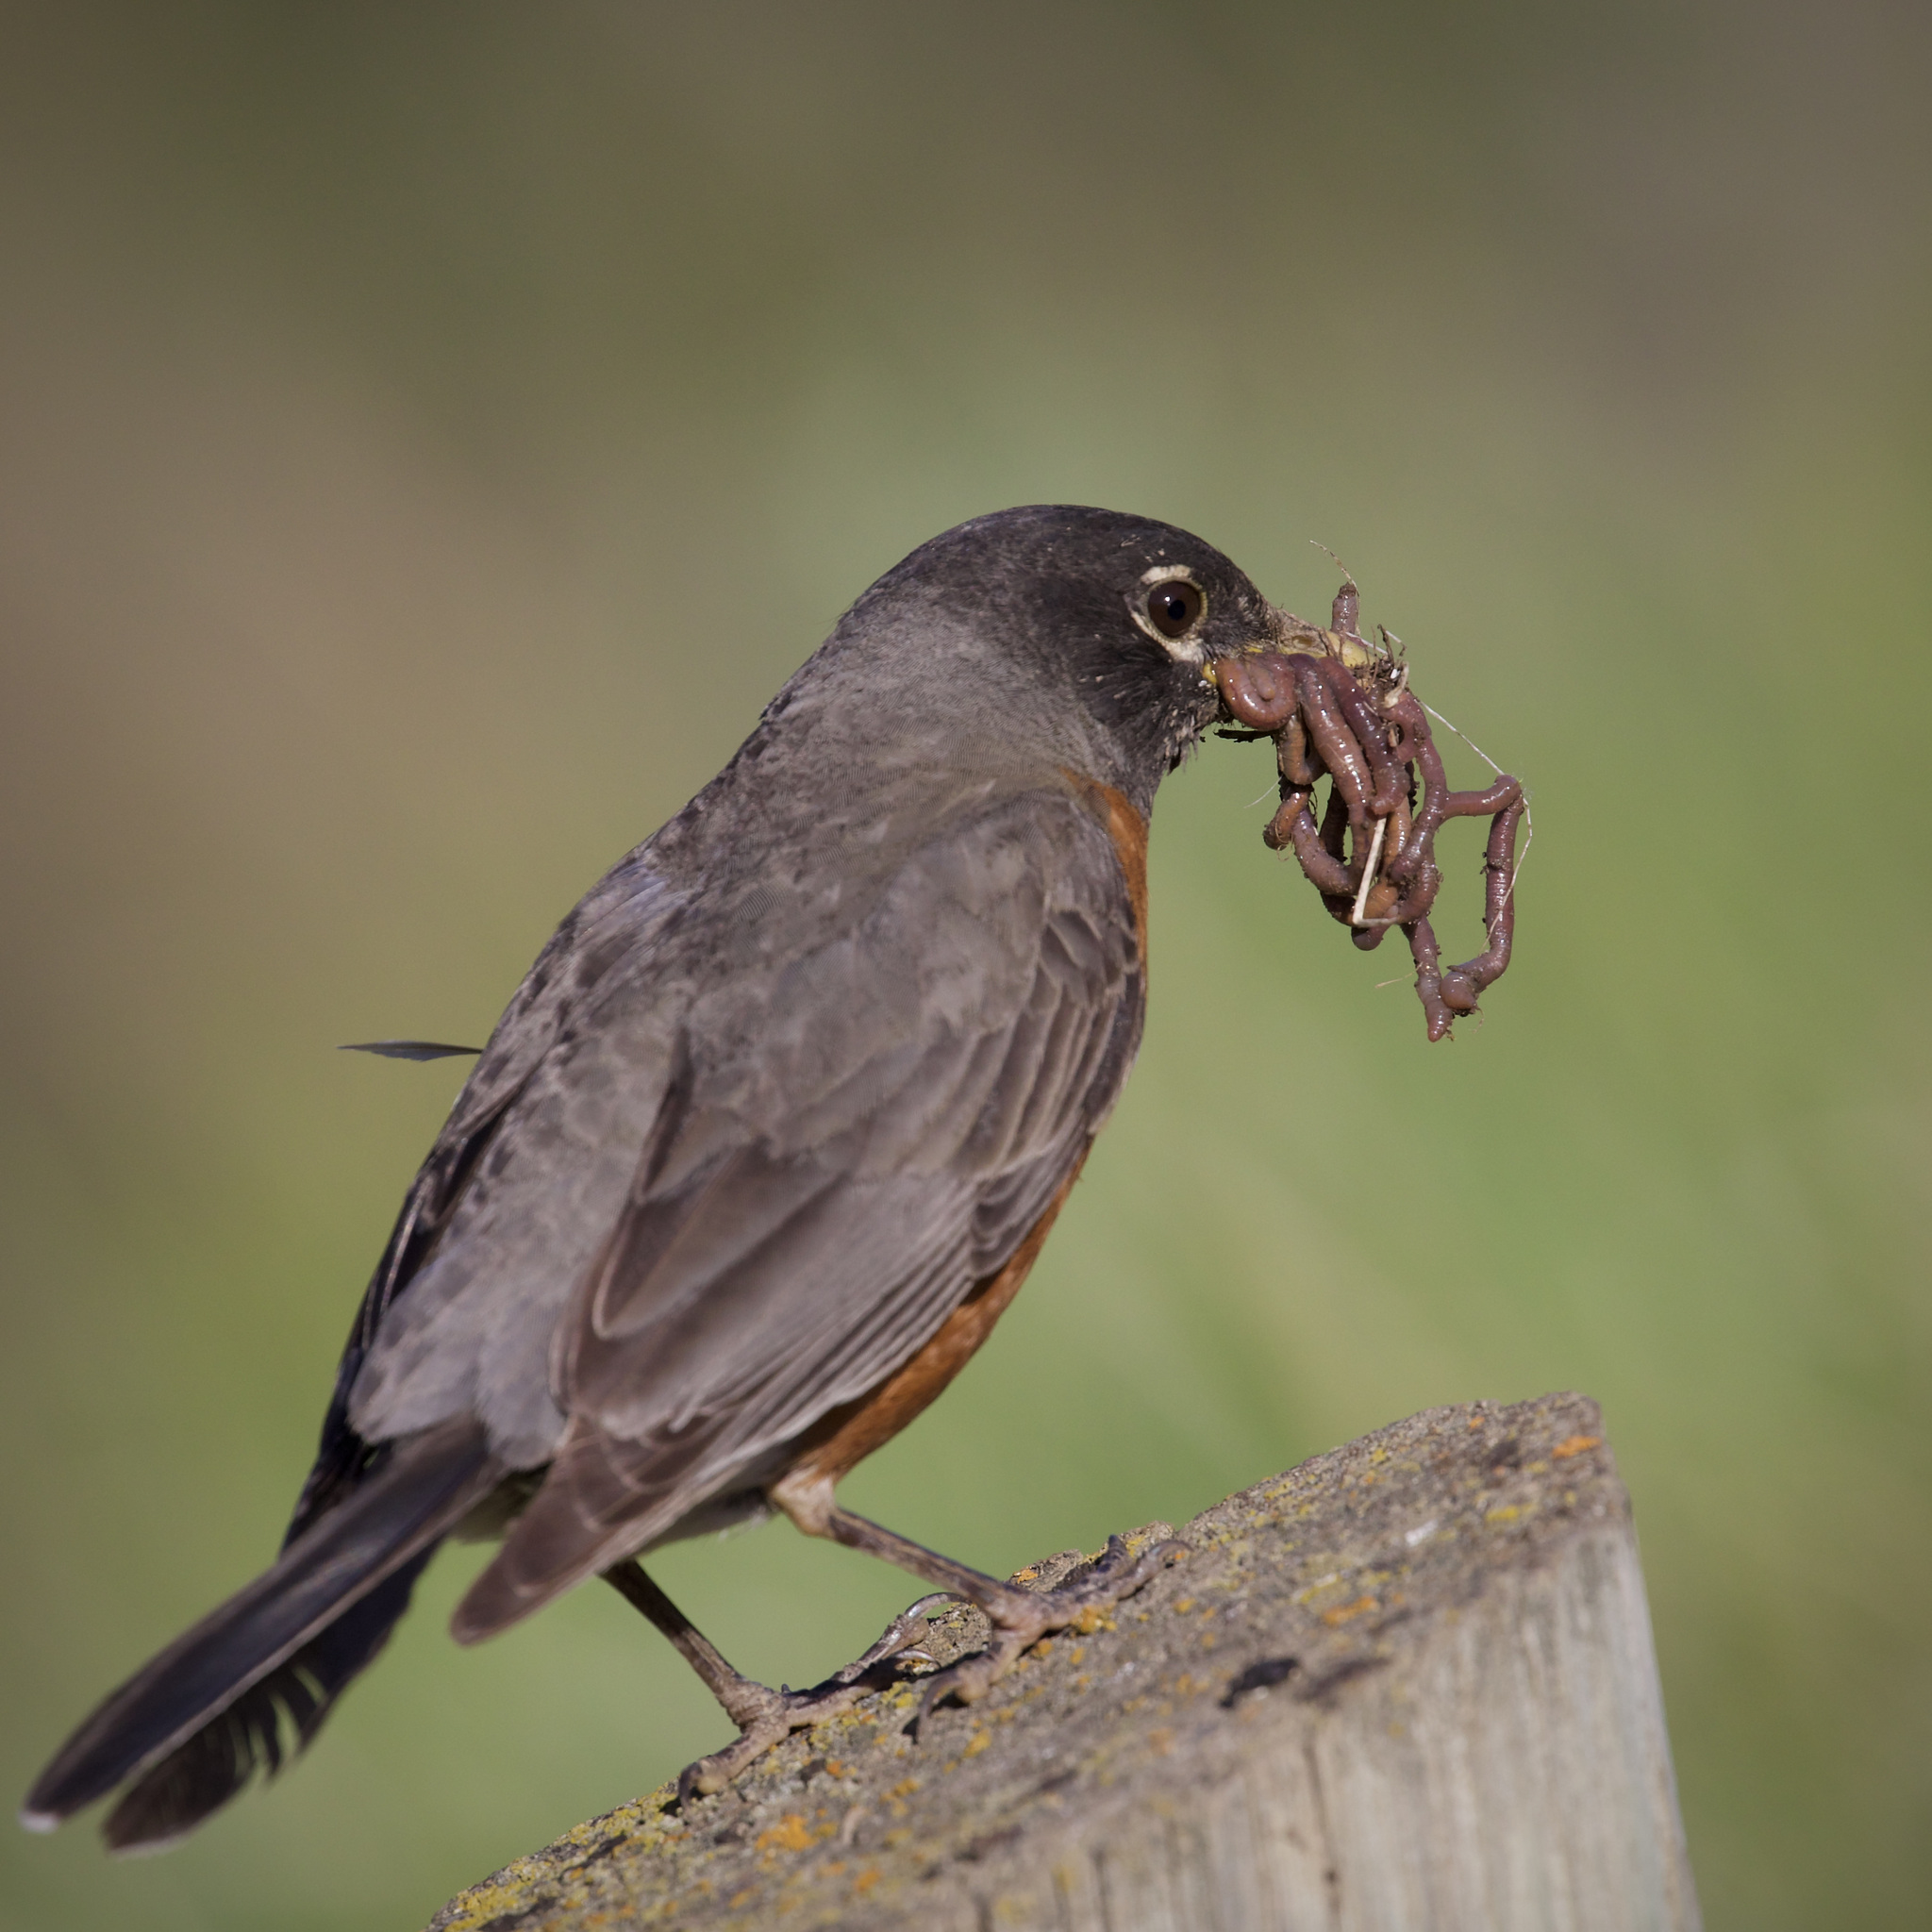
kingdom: Animalia
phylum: Chordata
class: Aves
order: Passeriformes
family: Turdidae
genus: Turdus
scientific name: Turdus migratorius
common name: American robin
